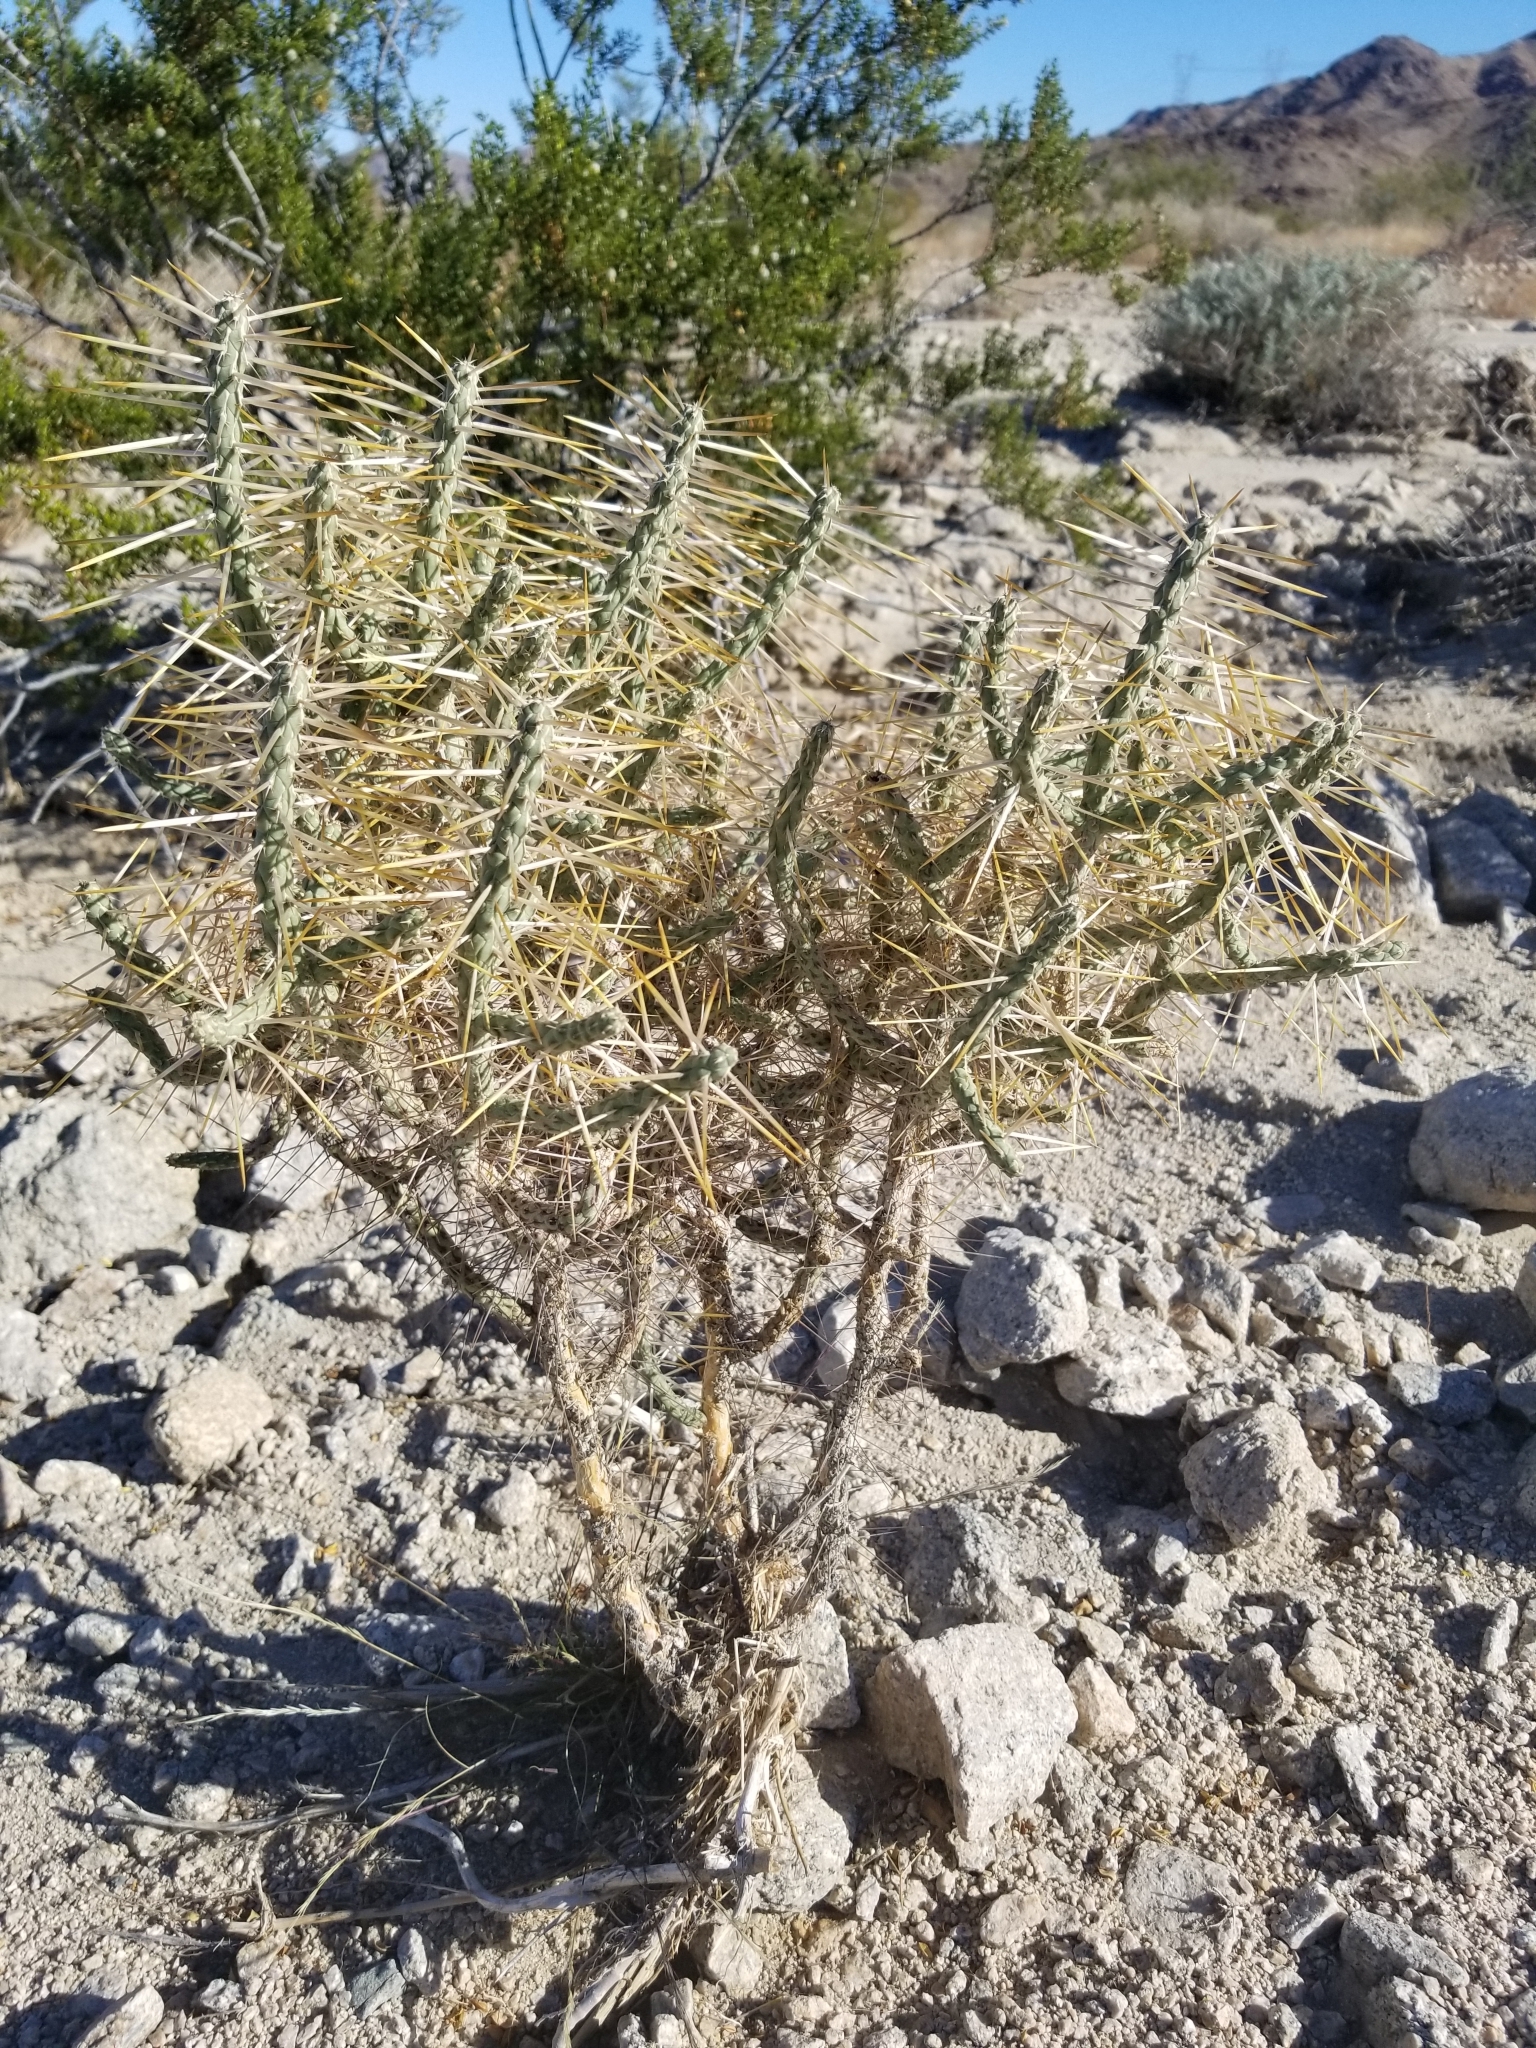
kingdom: Plantae
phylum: Tracheophyta
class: Magnoliopsida
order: Caryophyllales
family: Cactaceae
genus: Cylindropuntia
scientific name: Cylindropuntia ramosissima
